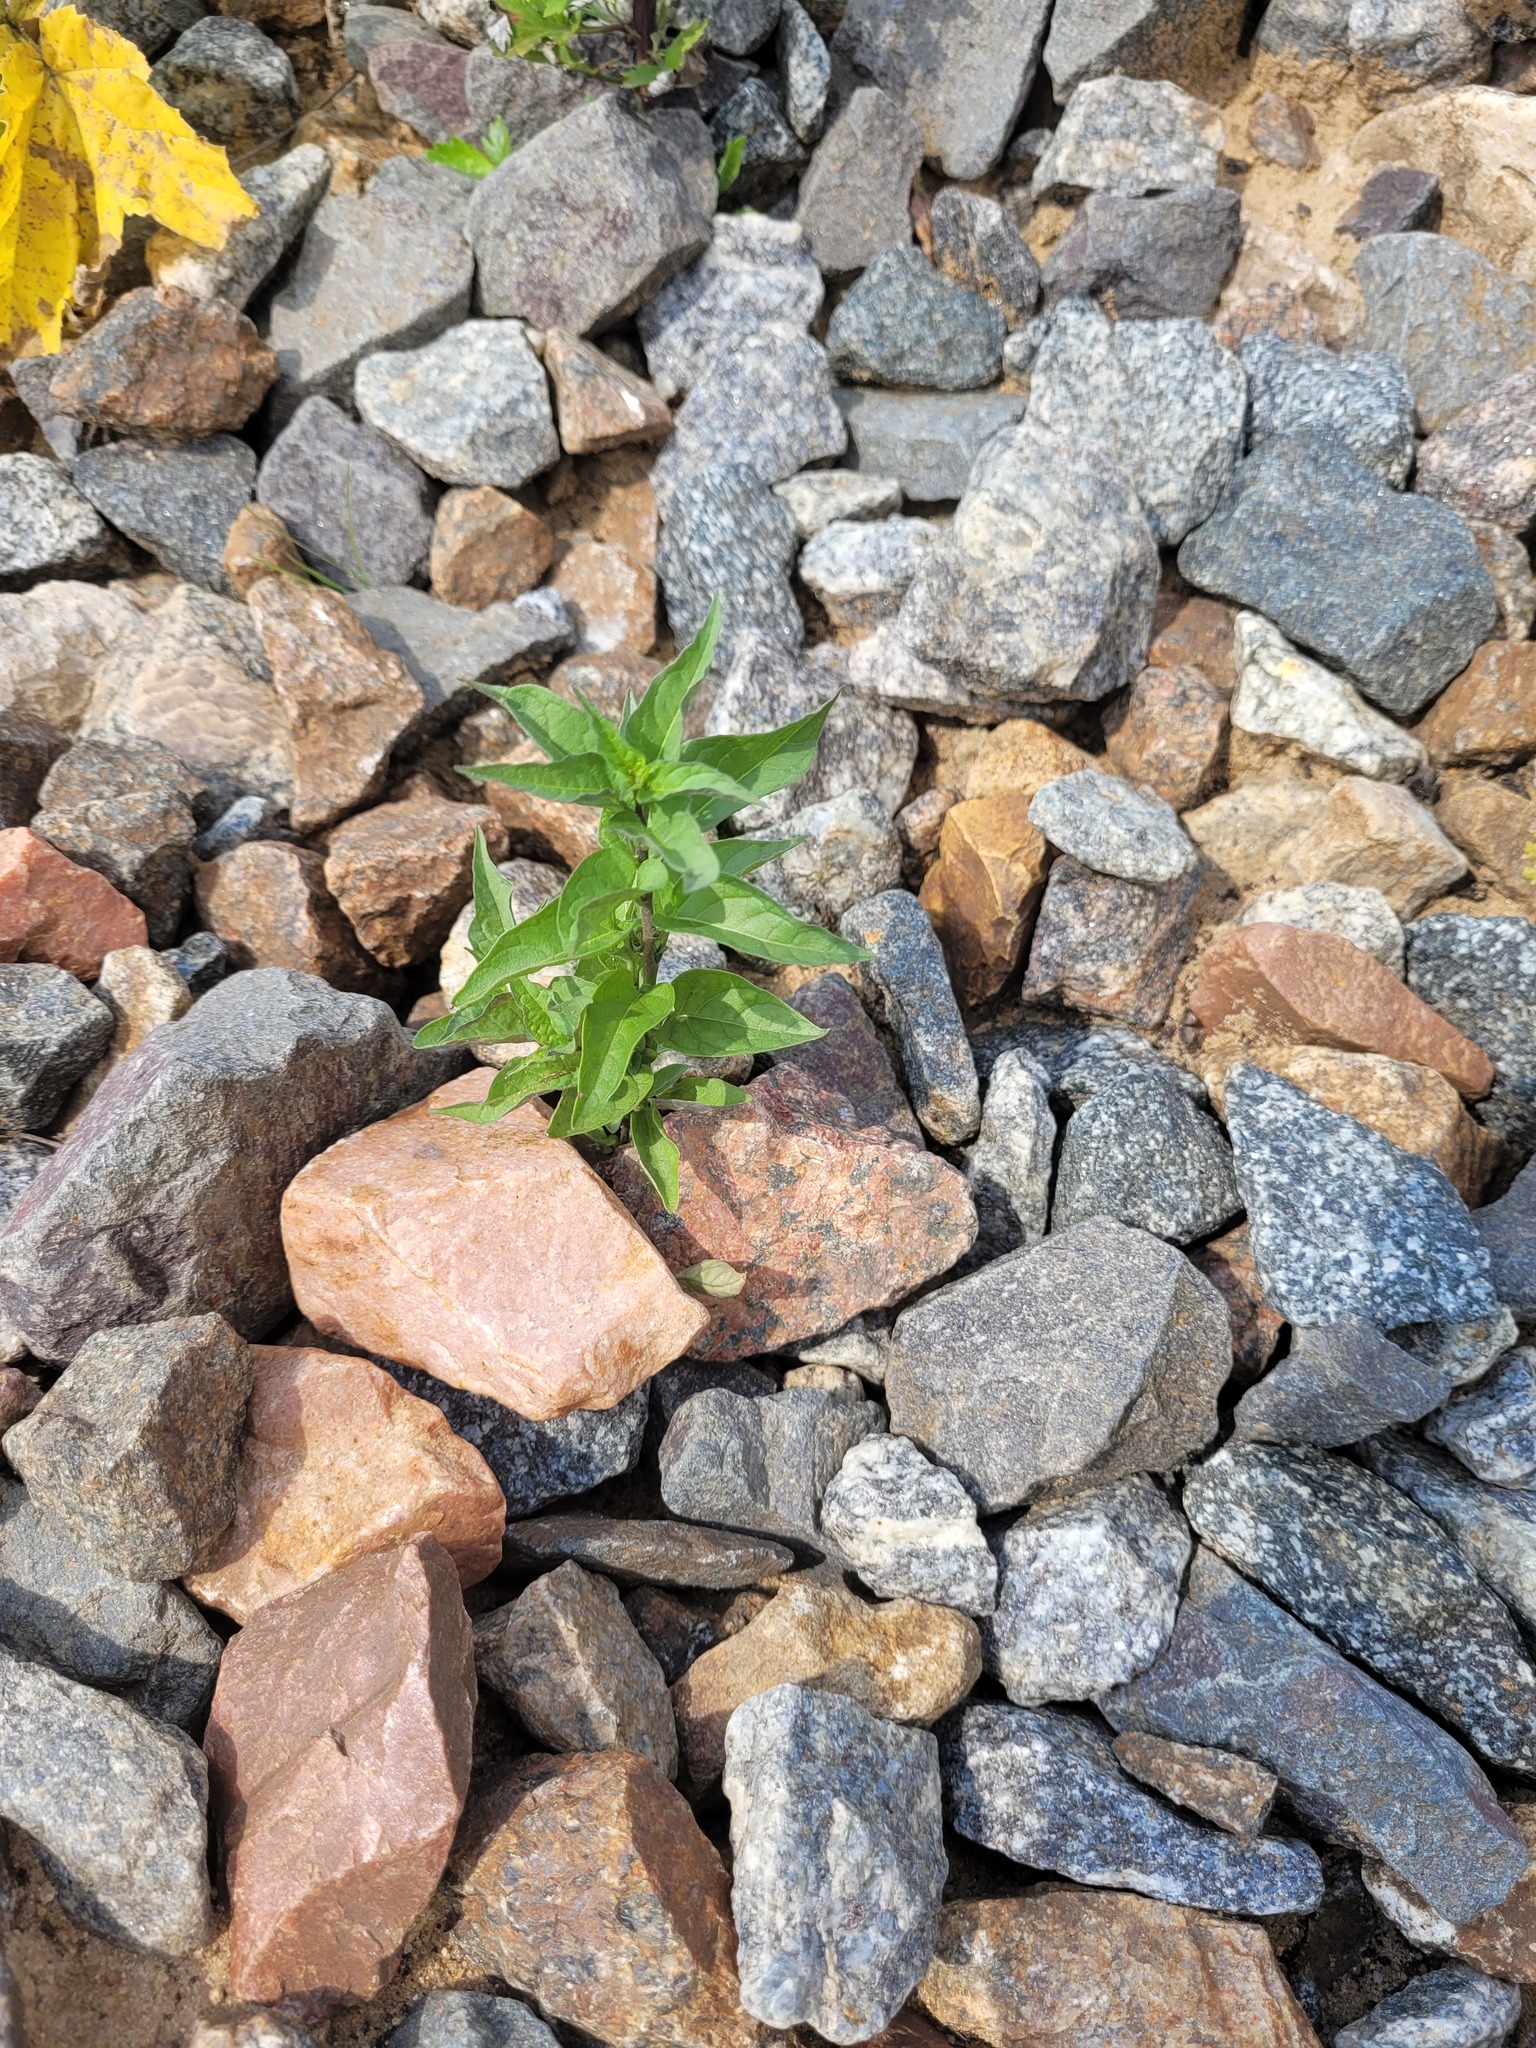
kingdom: Plantae
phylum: Tracheophyta
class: Magnoliopsida
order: Solanales
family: Solanaceae
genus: Solanum
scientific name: Solanum dulcamara
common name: Climbing nightshade
